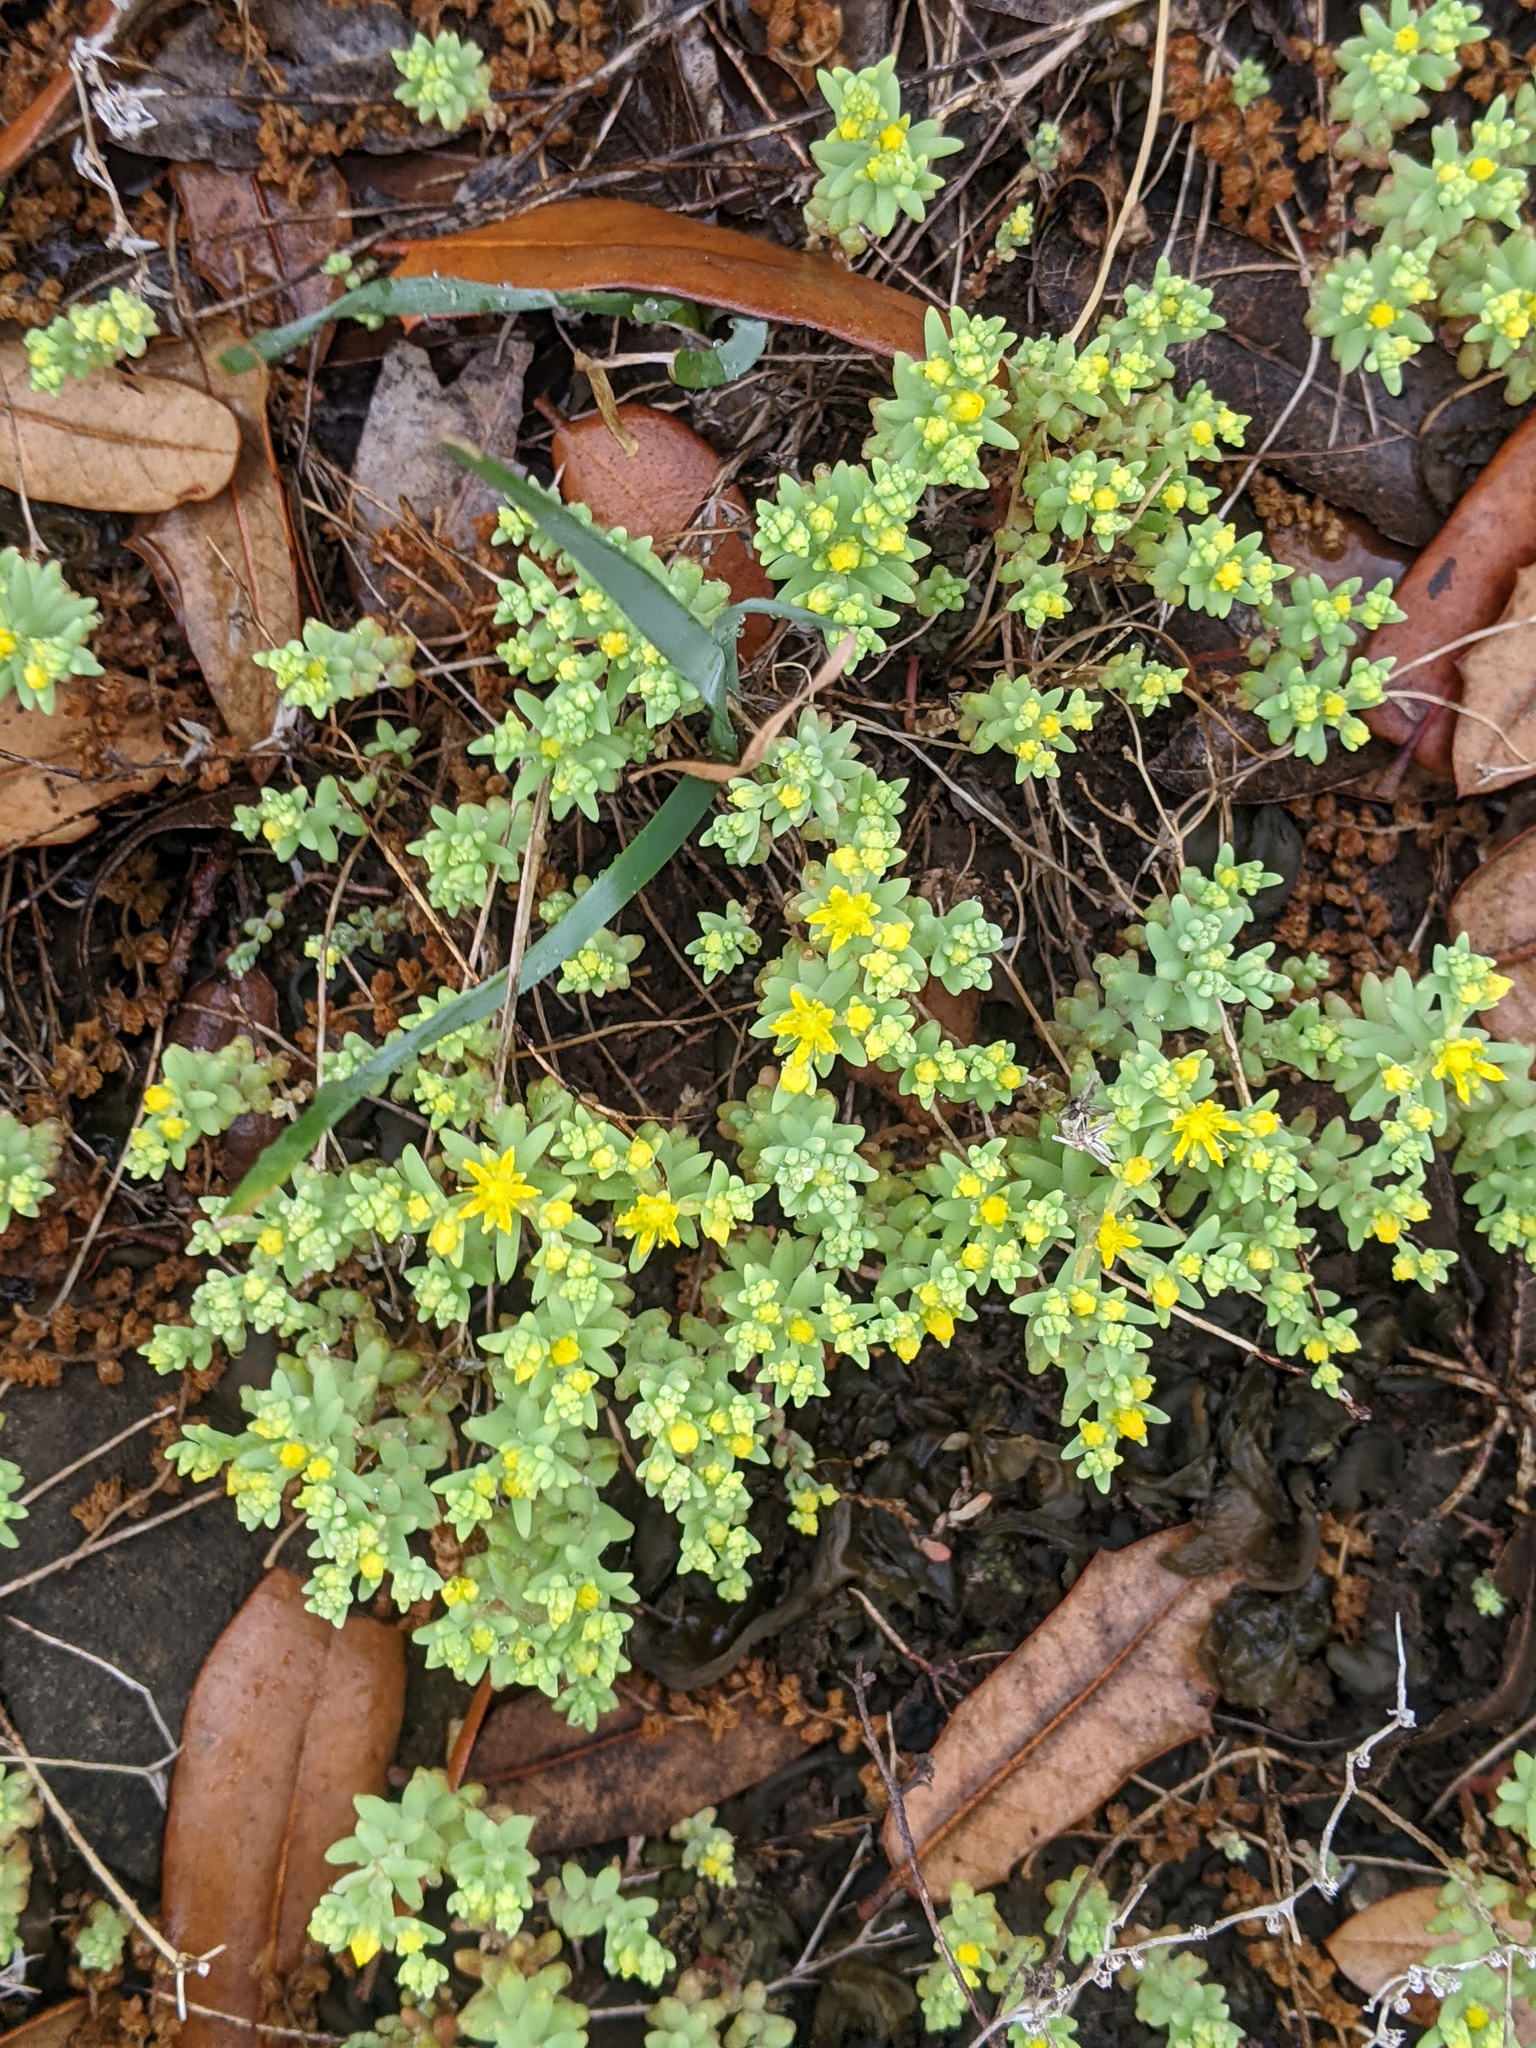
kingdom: Plantae
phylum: Tracheophyta
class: Magnoliopsida
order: Saxifragales
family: Crassulaceae
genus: Sedum
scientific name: Sedum nuttallii
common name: Yellow stonecrop
